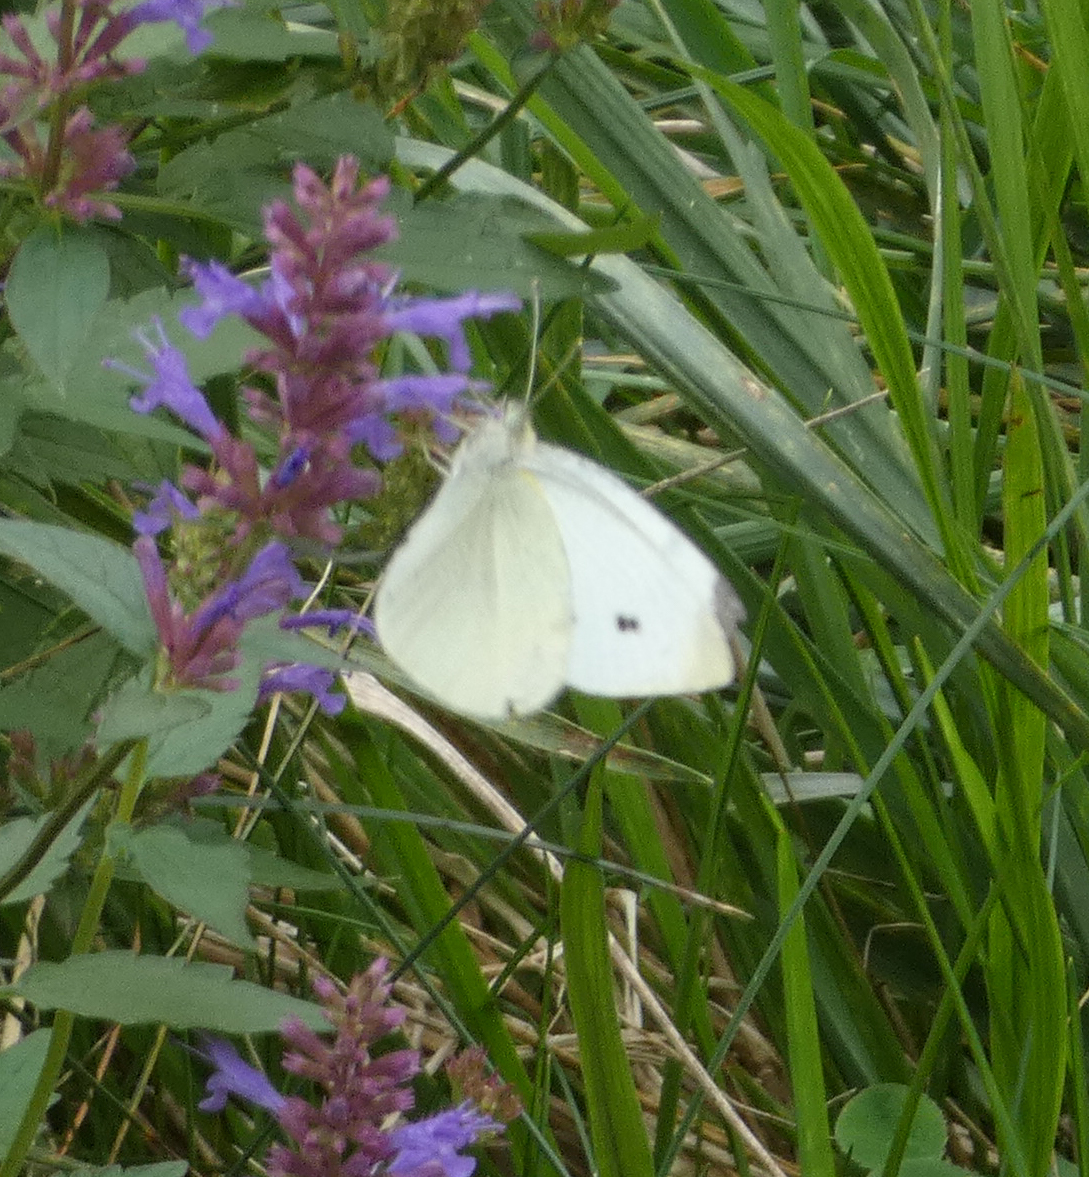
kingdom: Animalia
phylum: Arthropoda
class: Insecta
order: Lepidoptera
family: Pieridae
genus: Pieris
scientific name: Pieris rapae
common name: Small white
